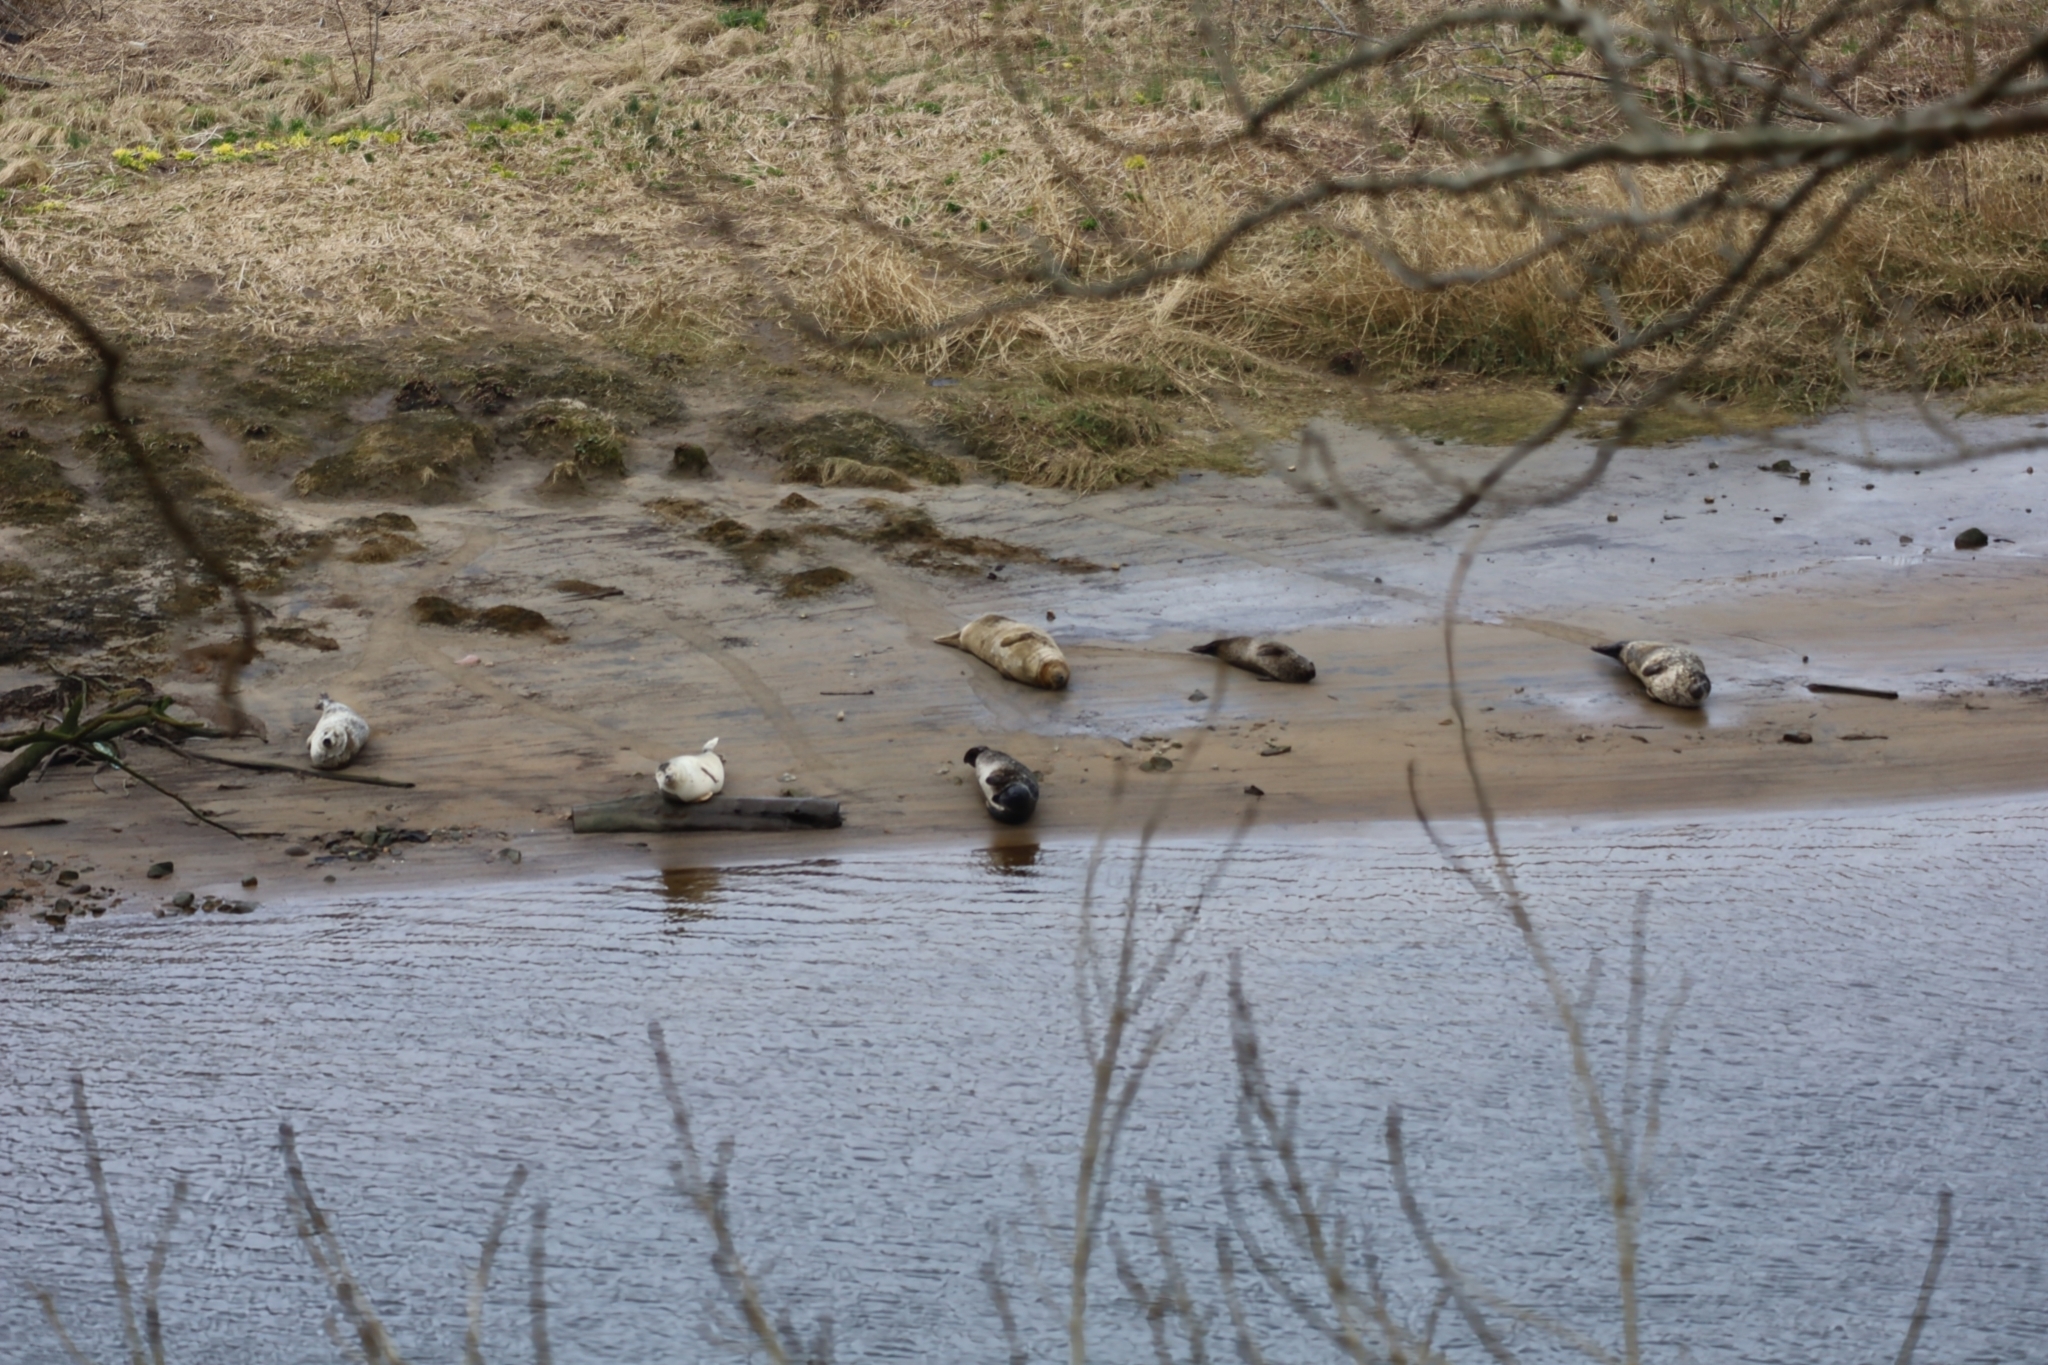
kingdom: Animalia
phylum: Chordata
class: Mammalia
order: Carnivora
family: Phocidae
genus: Phoca
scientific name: Phoca vitulina
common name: Harbor seal
